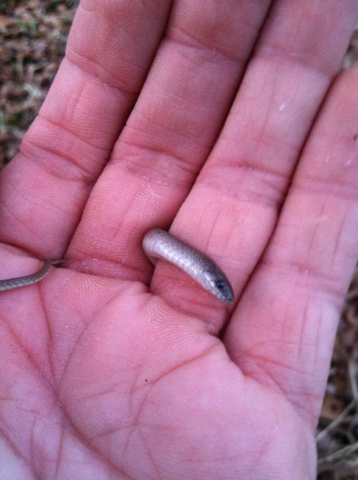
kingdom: Animalia
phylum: Chordata
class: Squamata
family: Colubridae
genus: Haldea
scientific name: Haldea striatula
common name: Rough earth snake
